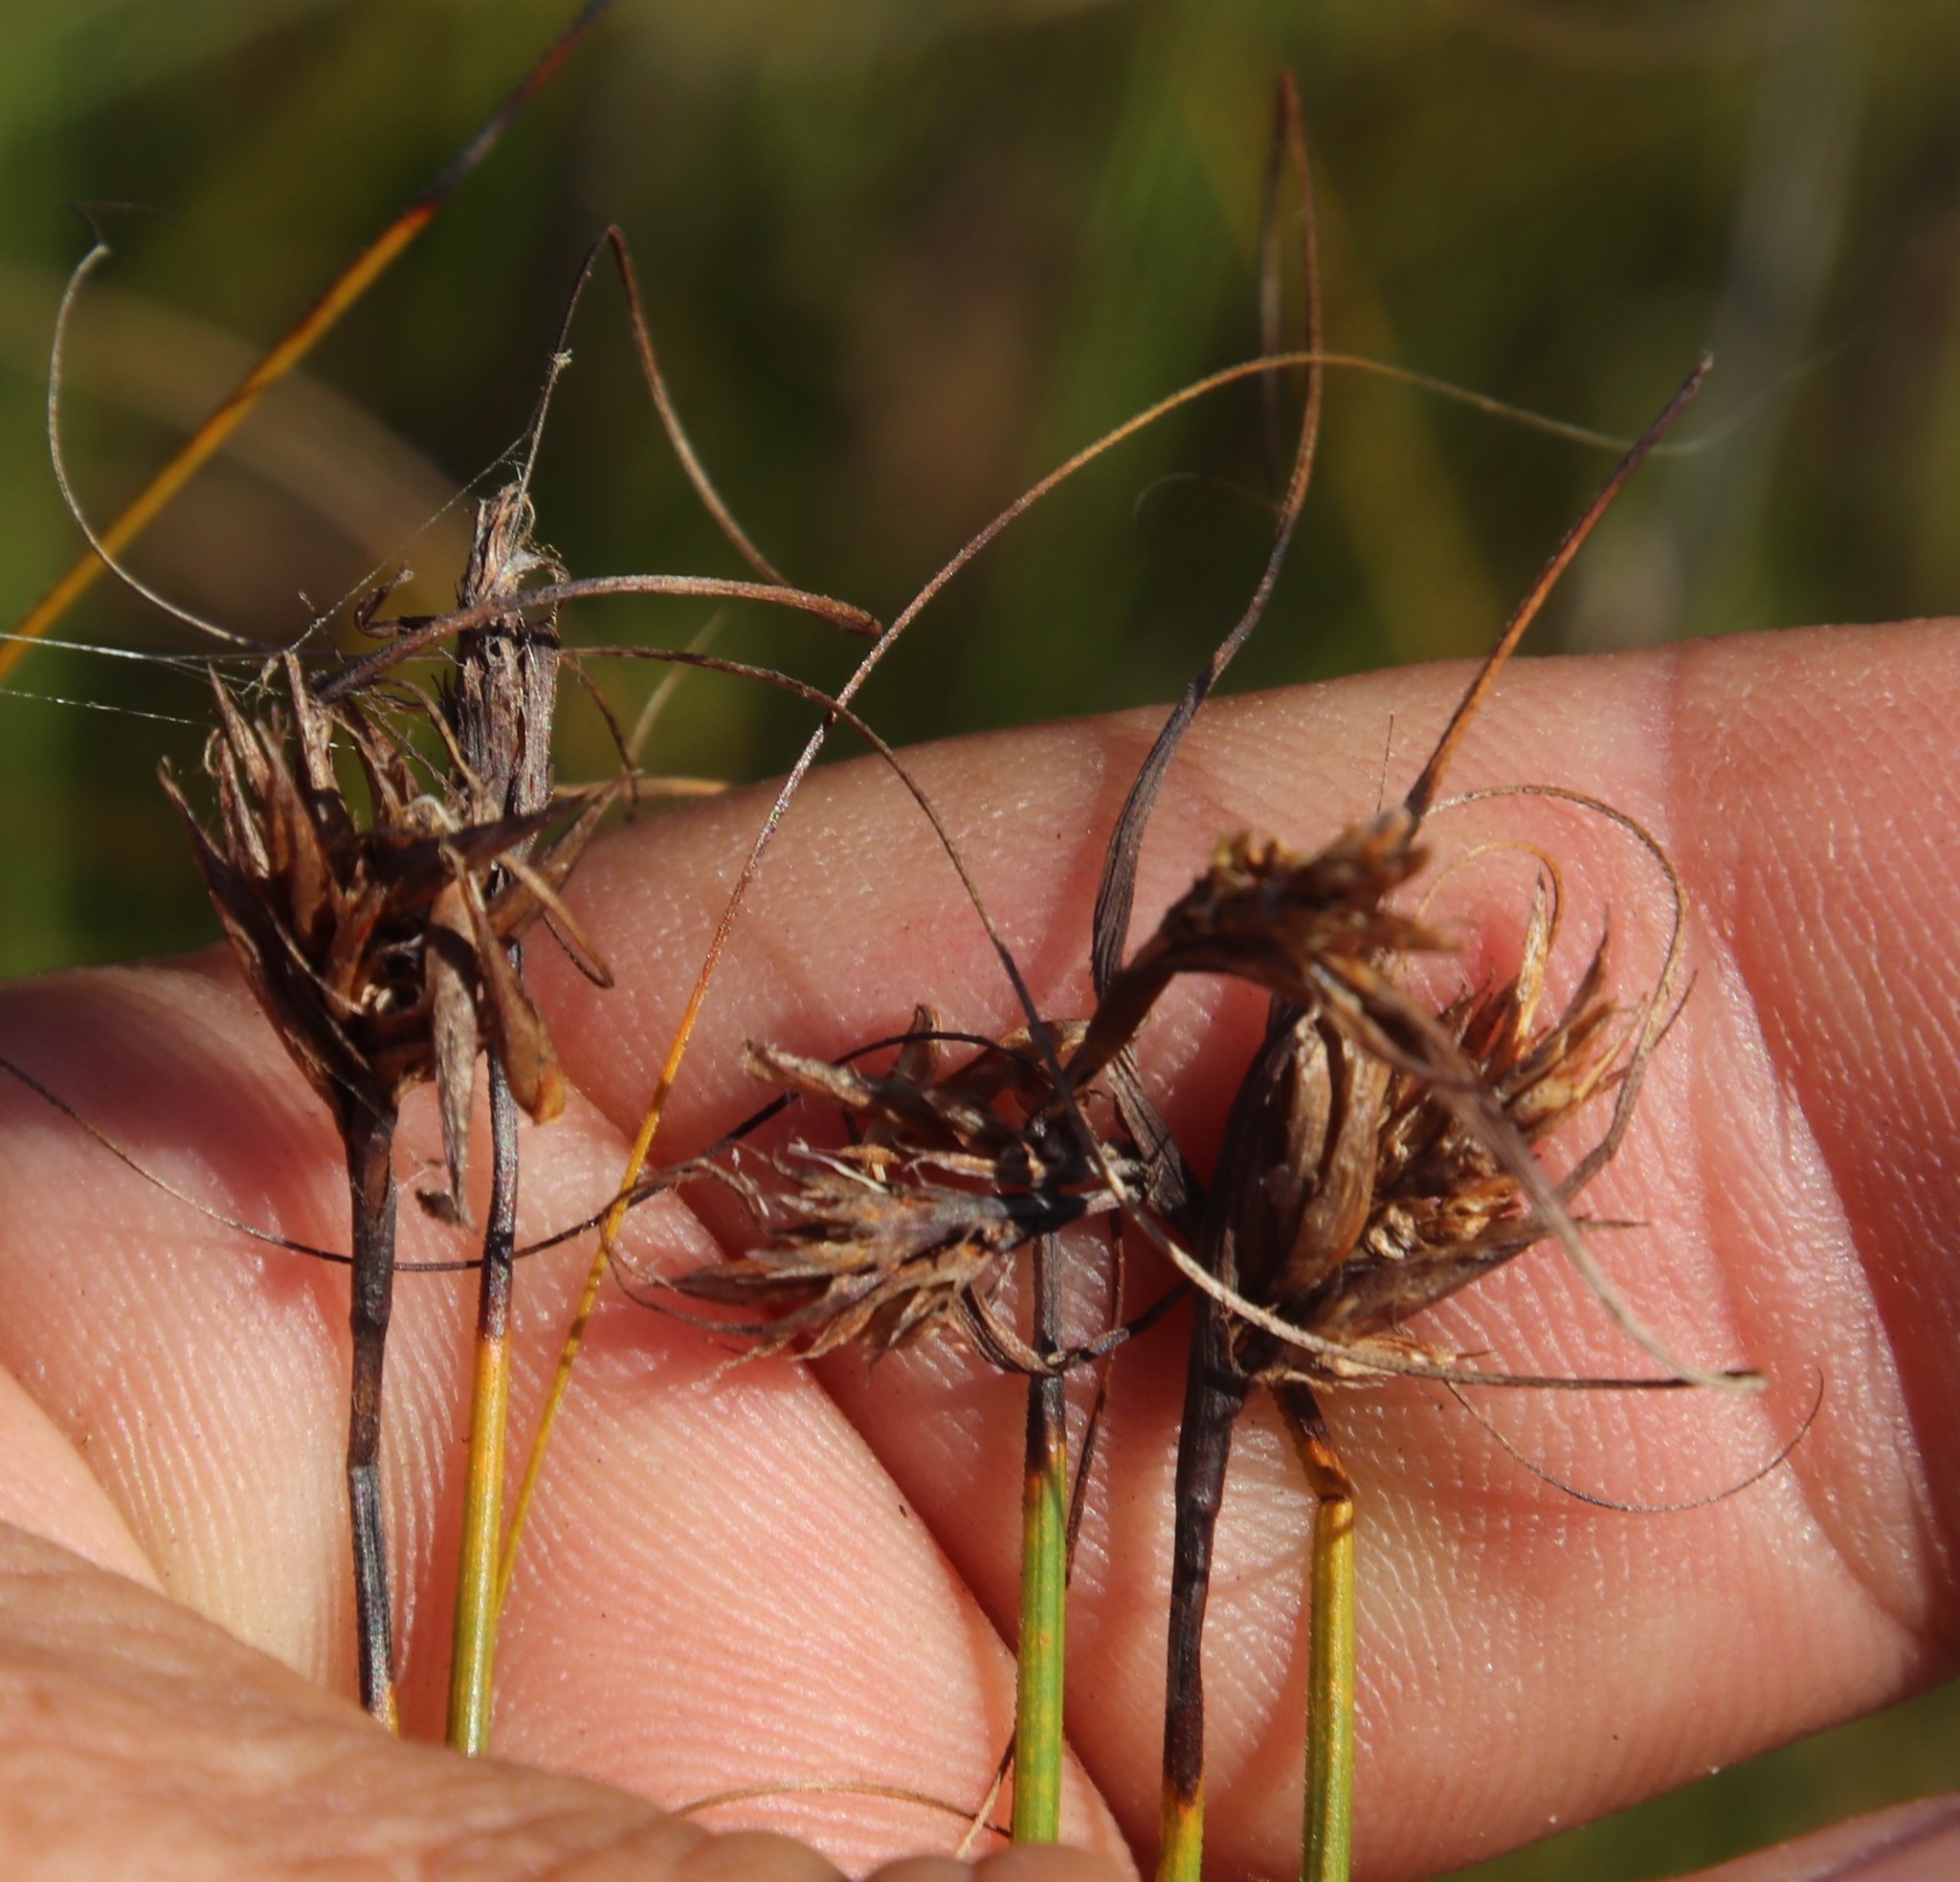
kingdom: Plantae
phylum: Tracheophyta
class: Liliopsida
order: Poales
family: Cyperaceae
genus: Tetraria
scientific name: Tetraria crinifolia
